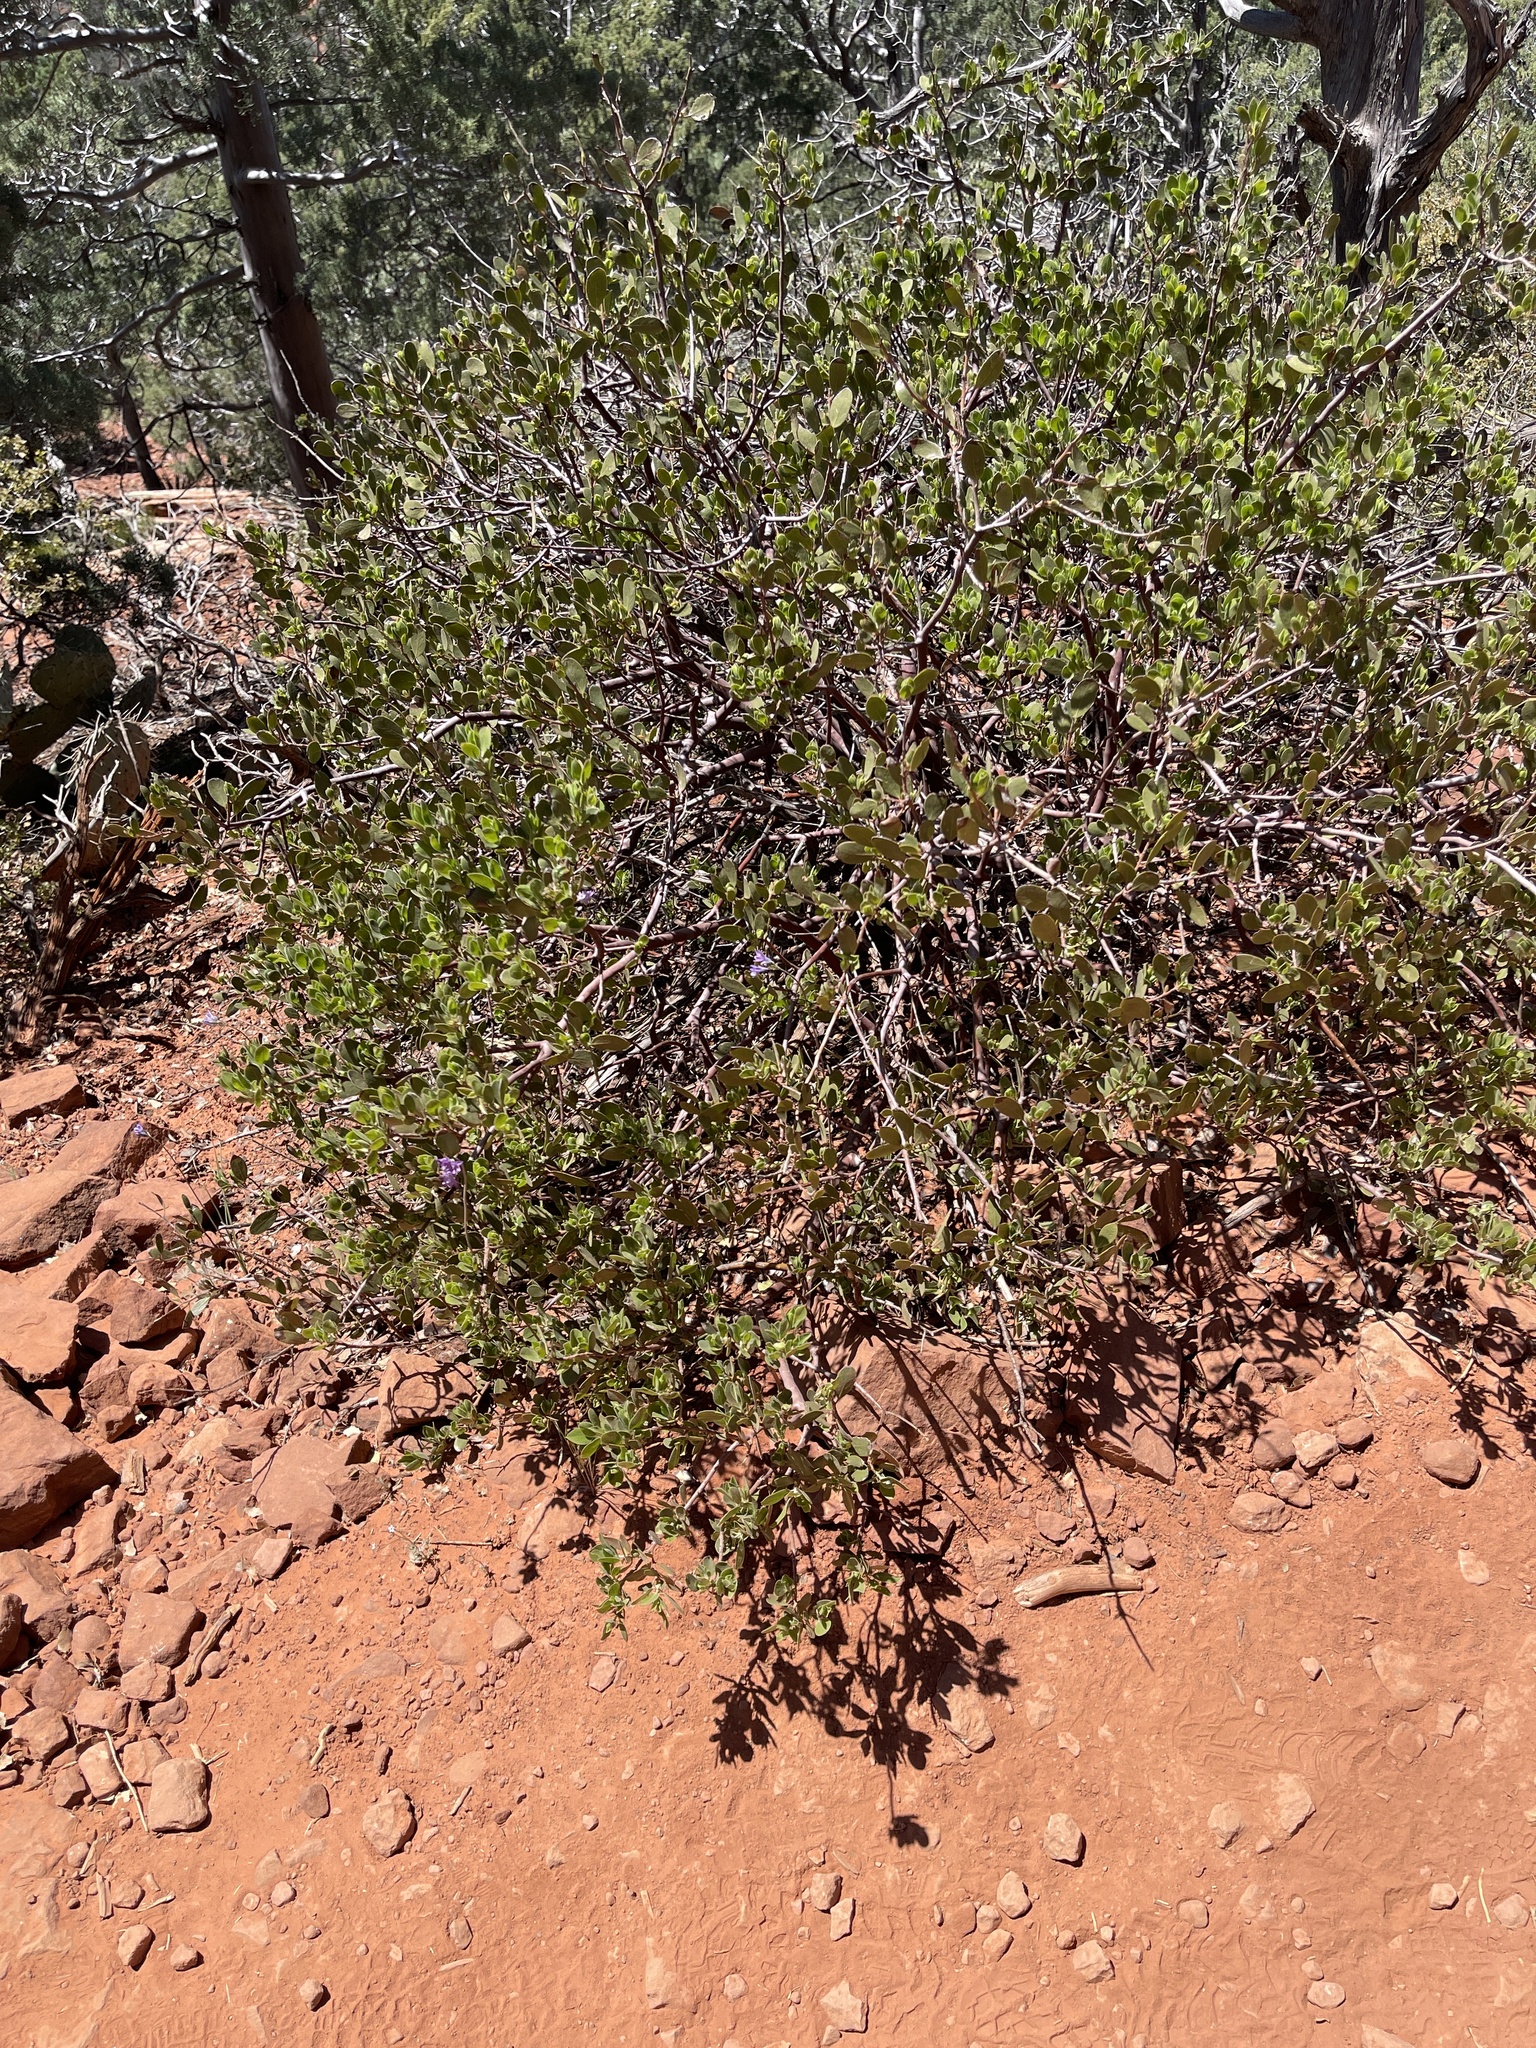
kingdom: Plantae
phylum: Tracheophyta
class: Magnoliopsida
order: Ericales
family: Ericaceae
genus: Arctostaphylos
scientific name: Arctostaphylos pungens
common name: Mexican manzanita
